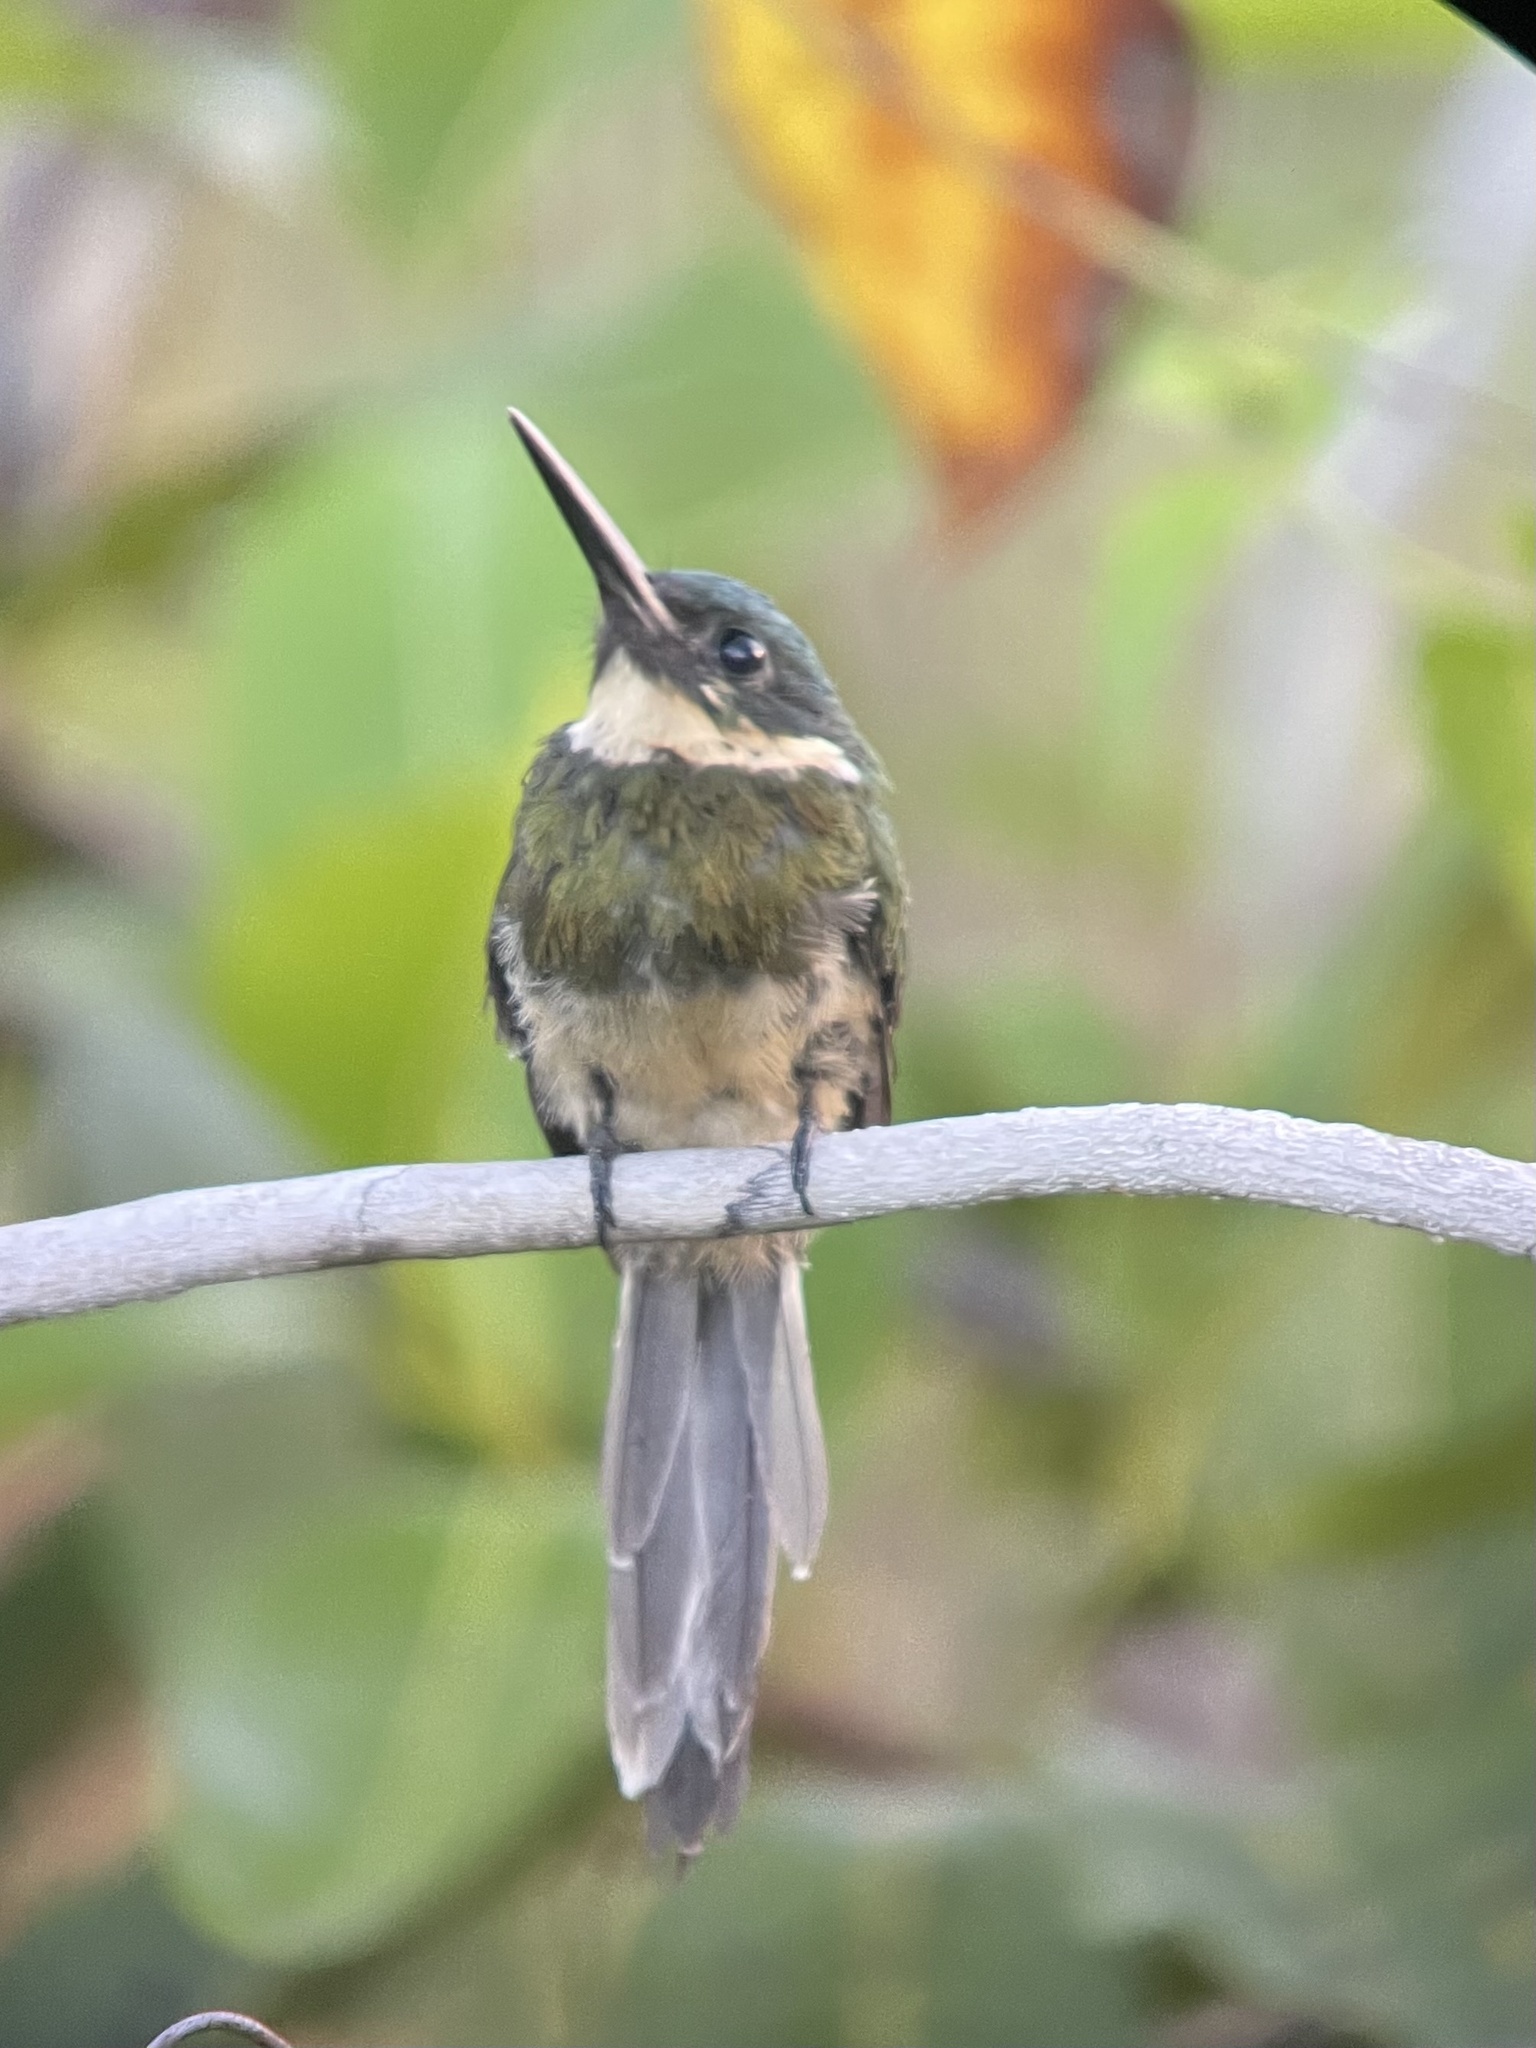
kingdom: Animalia
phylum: Chordata
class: Aves
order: Piciformes
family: Galbulidae
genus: Galbula
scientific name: Galbula leucogastra
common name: Bronzy jacamar
